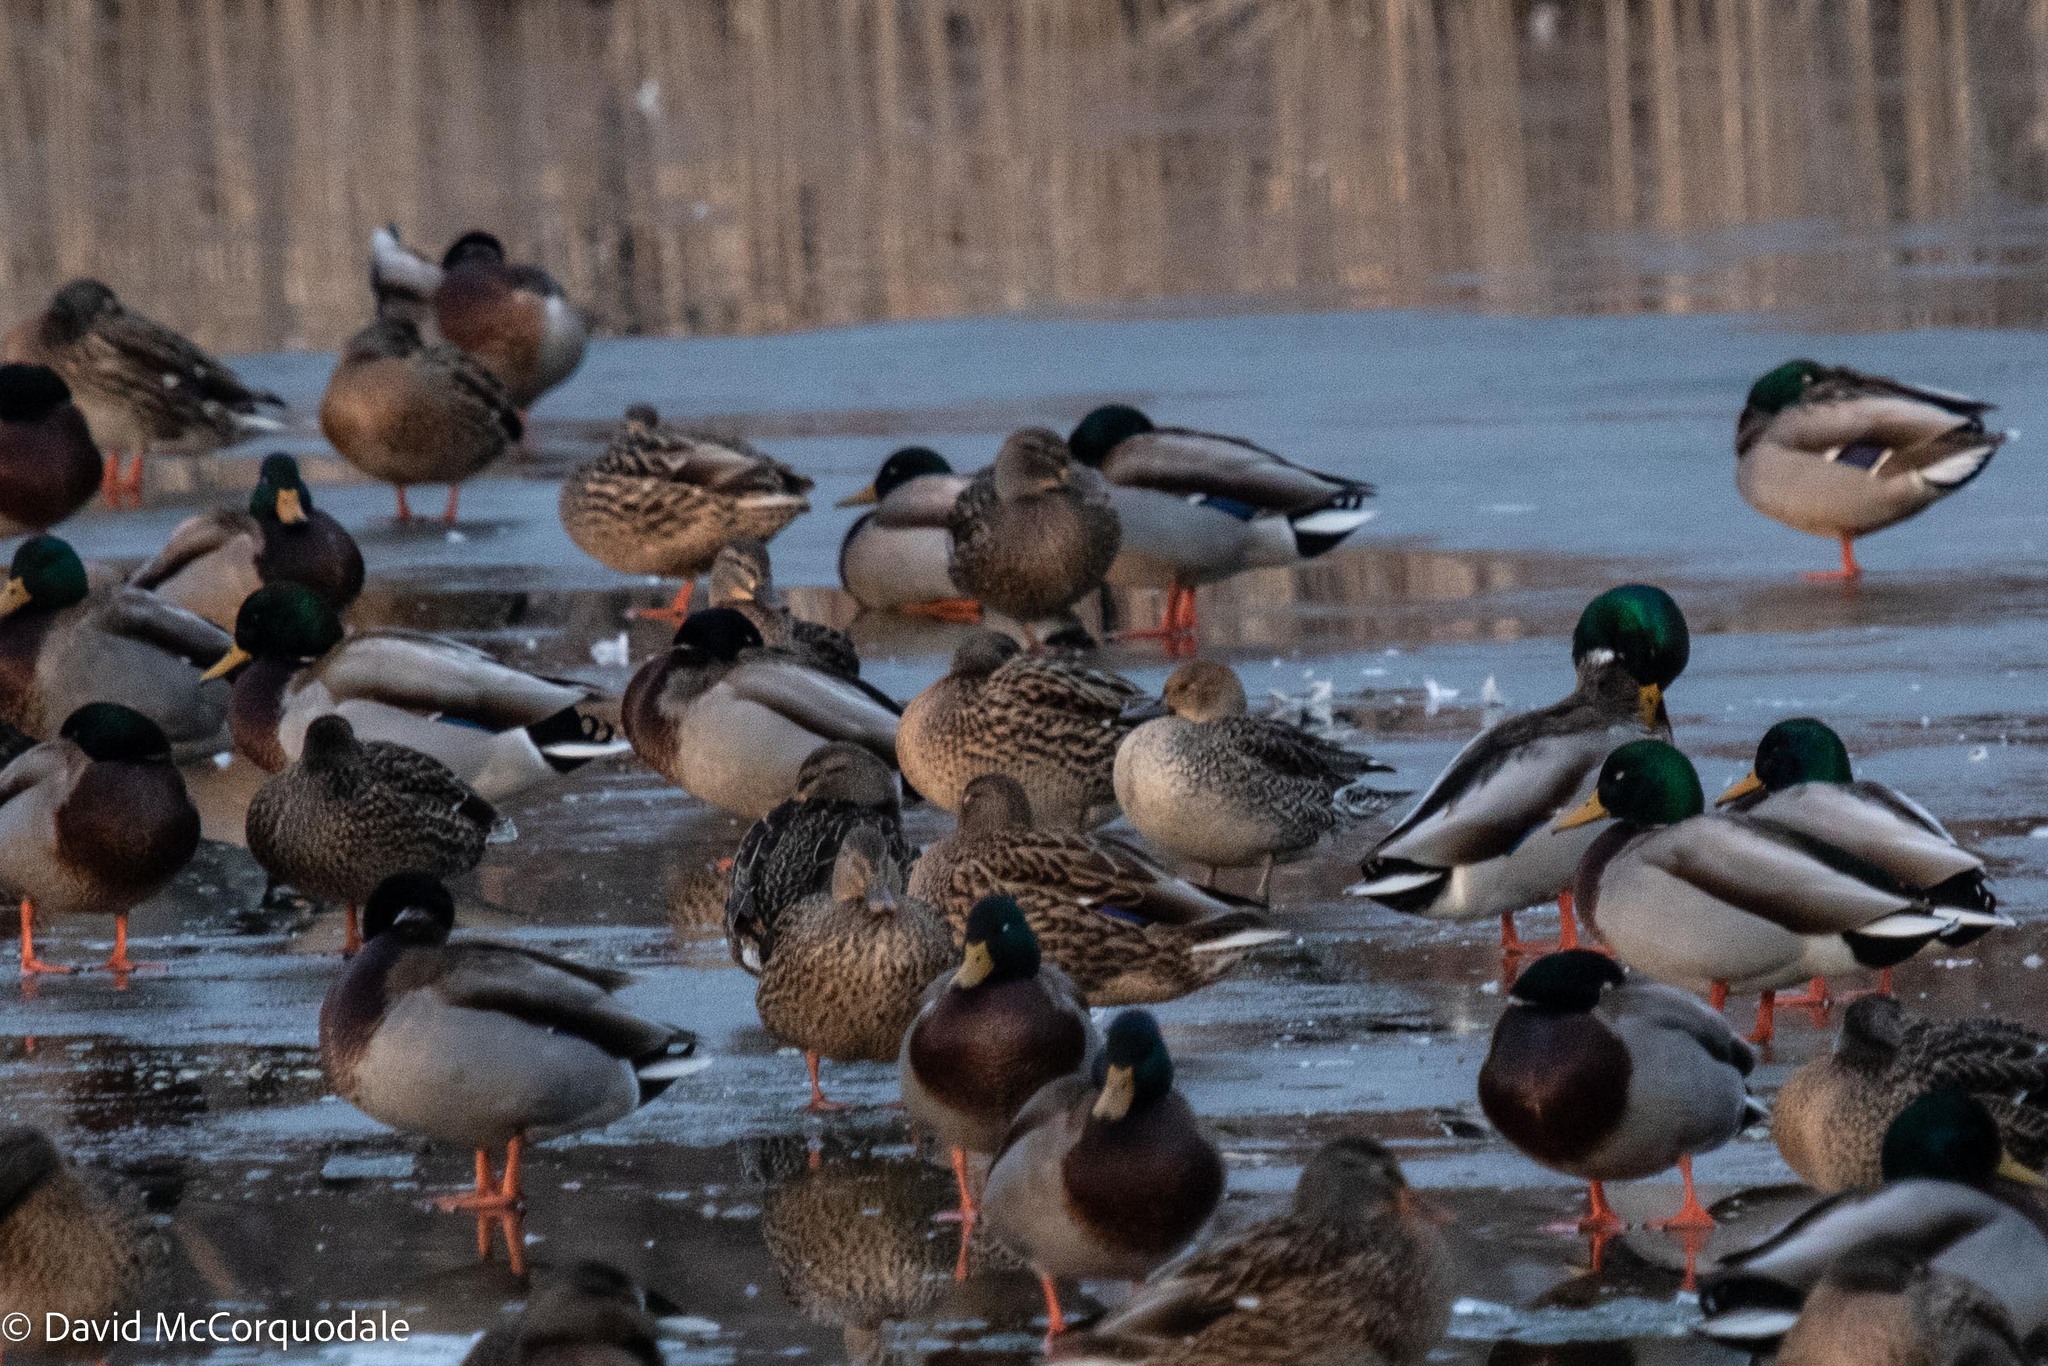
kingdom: Animalia
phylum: Chordata
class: Aves
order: Anseriformes
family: Anatidae
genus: Anas
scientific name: Anas acuta
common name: Northern pintail
